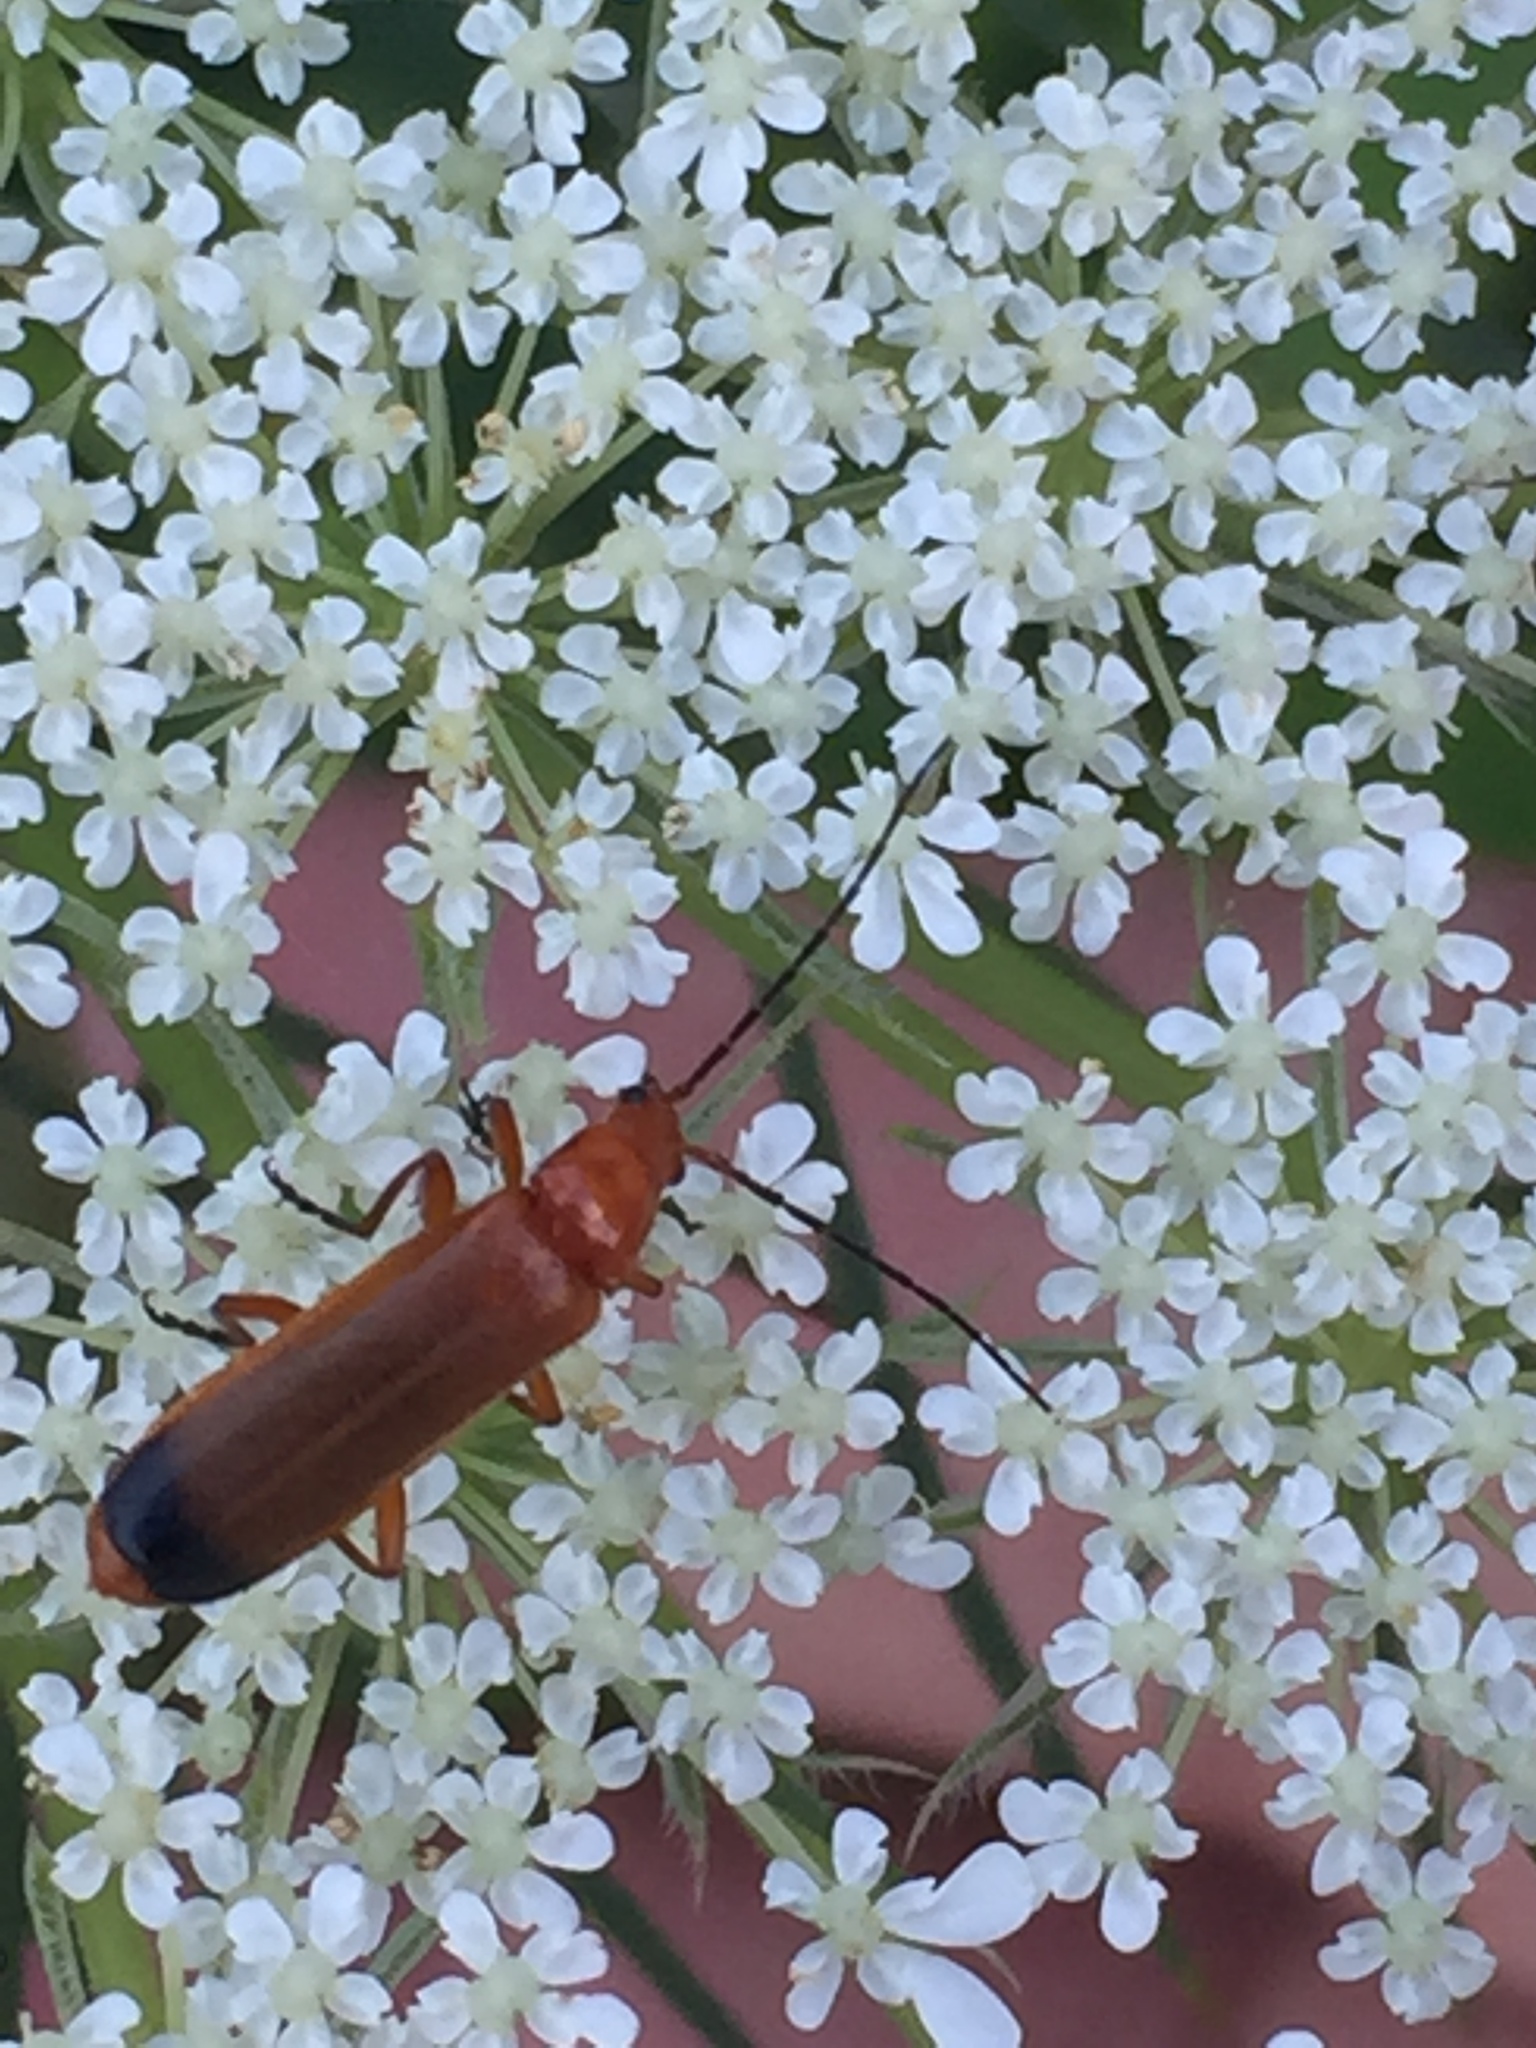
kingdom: Animalia
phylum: Arthropoda
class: Insecta
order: Coleoptera
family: Cantharidae
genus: Rhagonycha
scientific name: Rhagonycha fulva
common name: Common red soldier beetle
